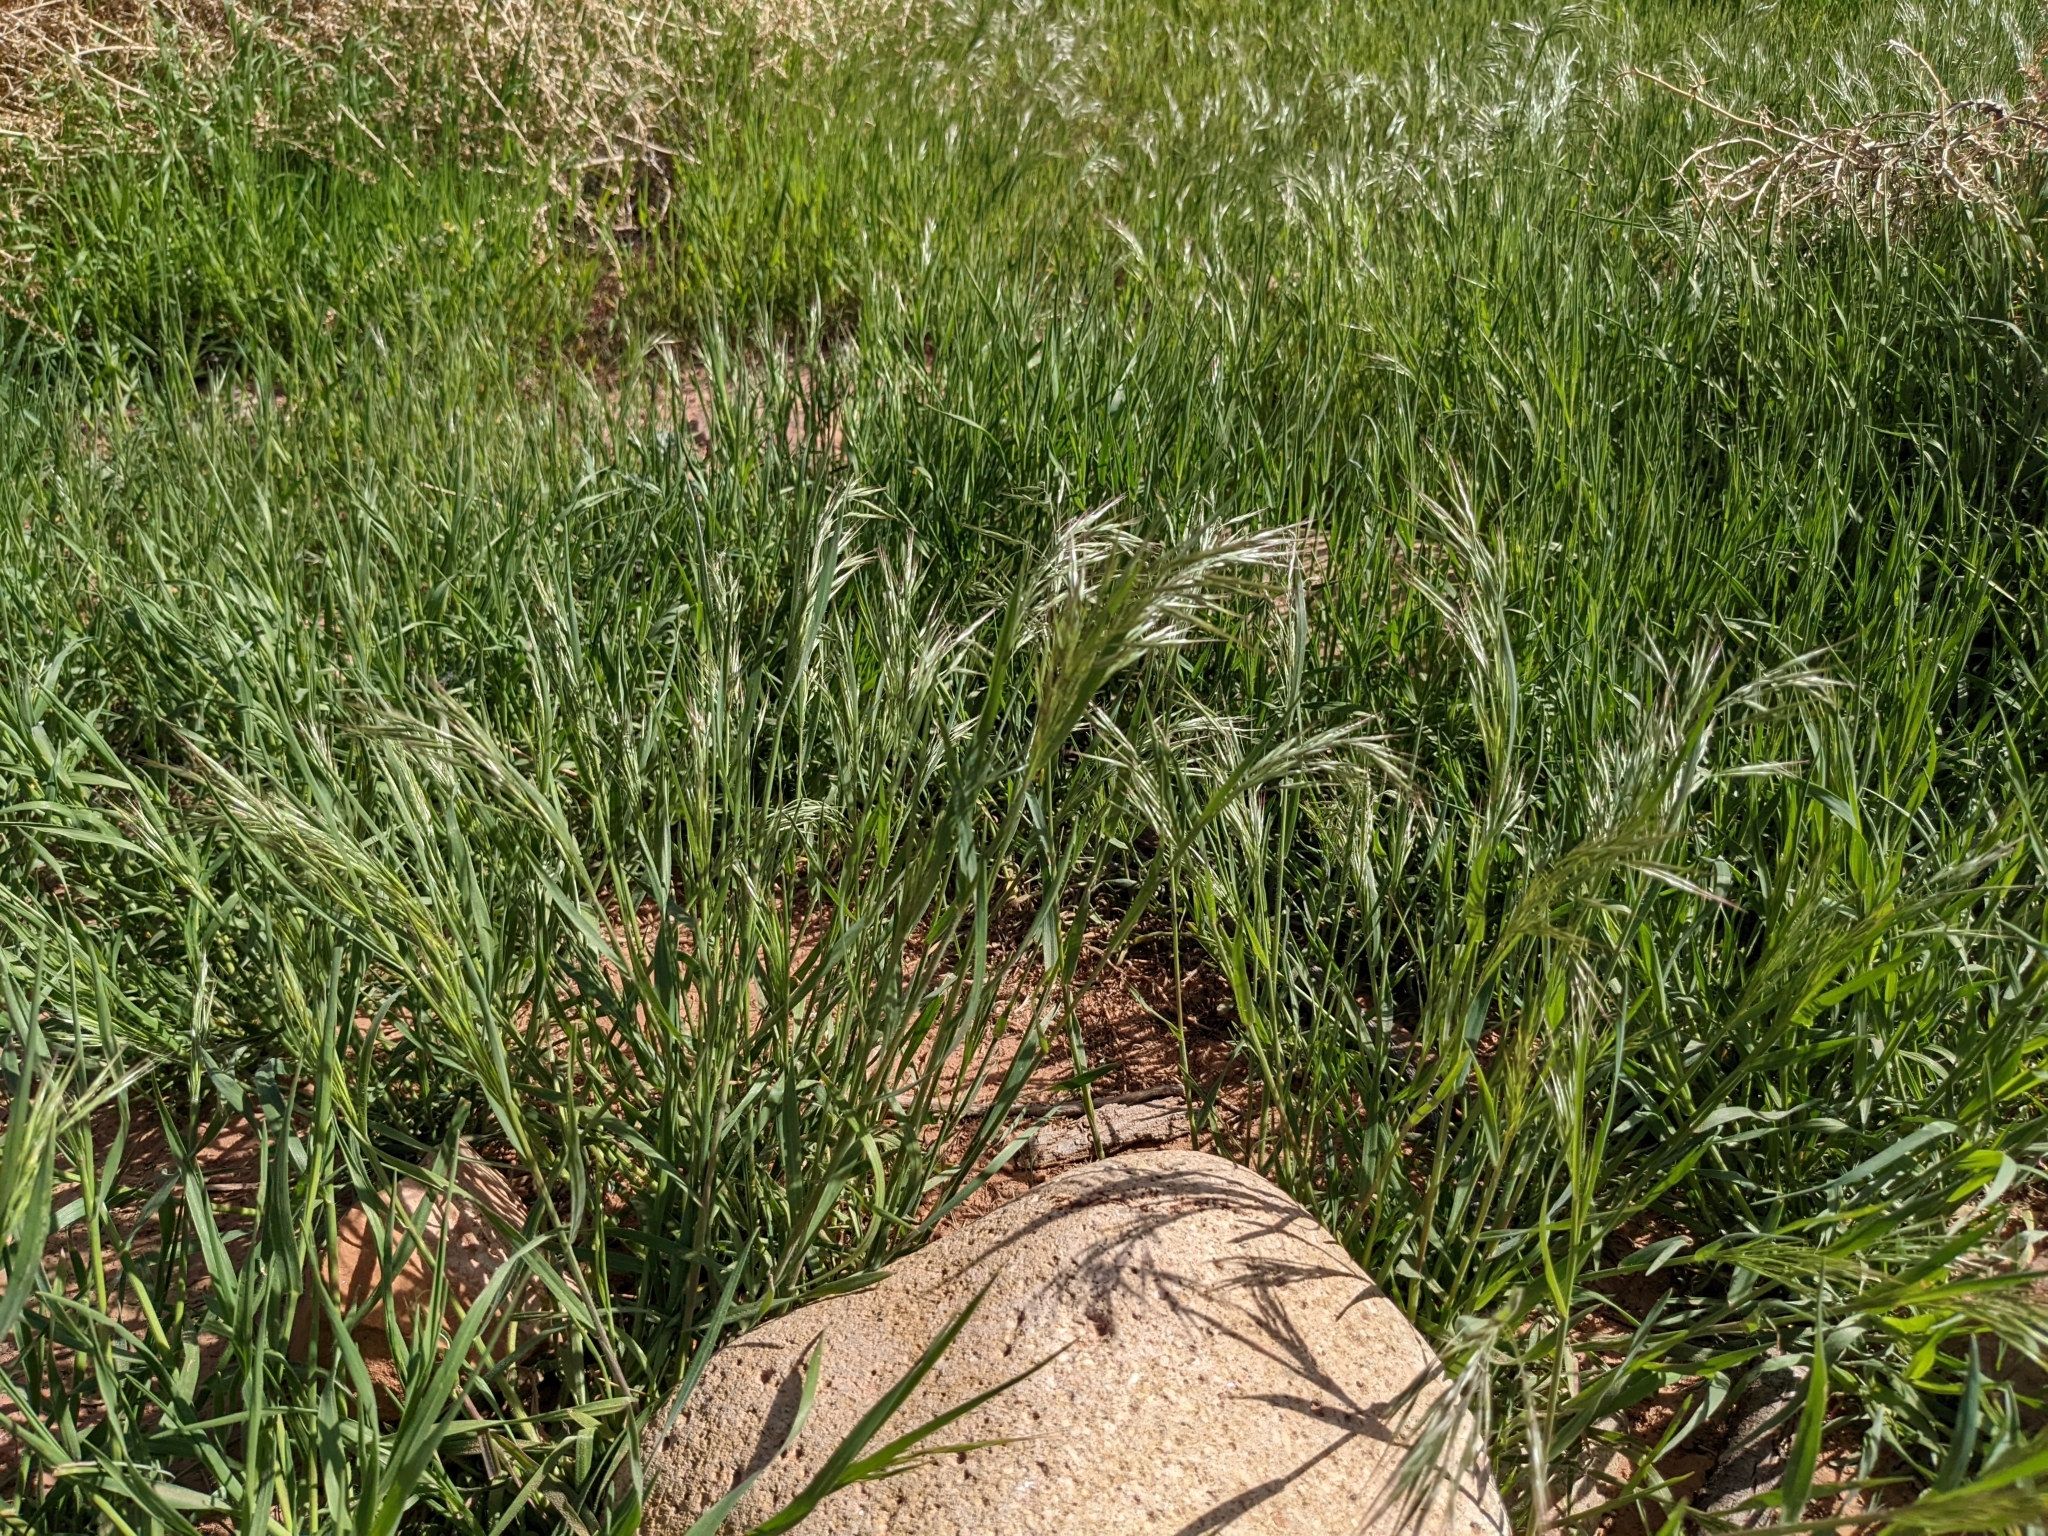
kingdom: Plantae
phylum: Tracheophyta
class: Liliopsida
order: Poales
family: Poaceae
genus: Bromus
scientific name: Bromus tectorum
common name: Cheatgrass
